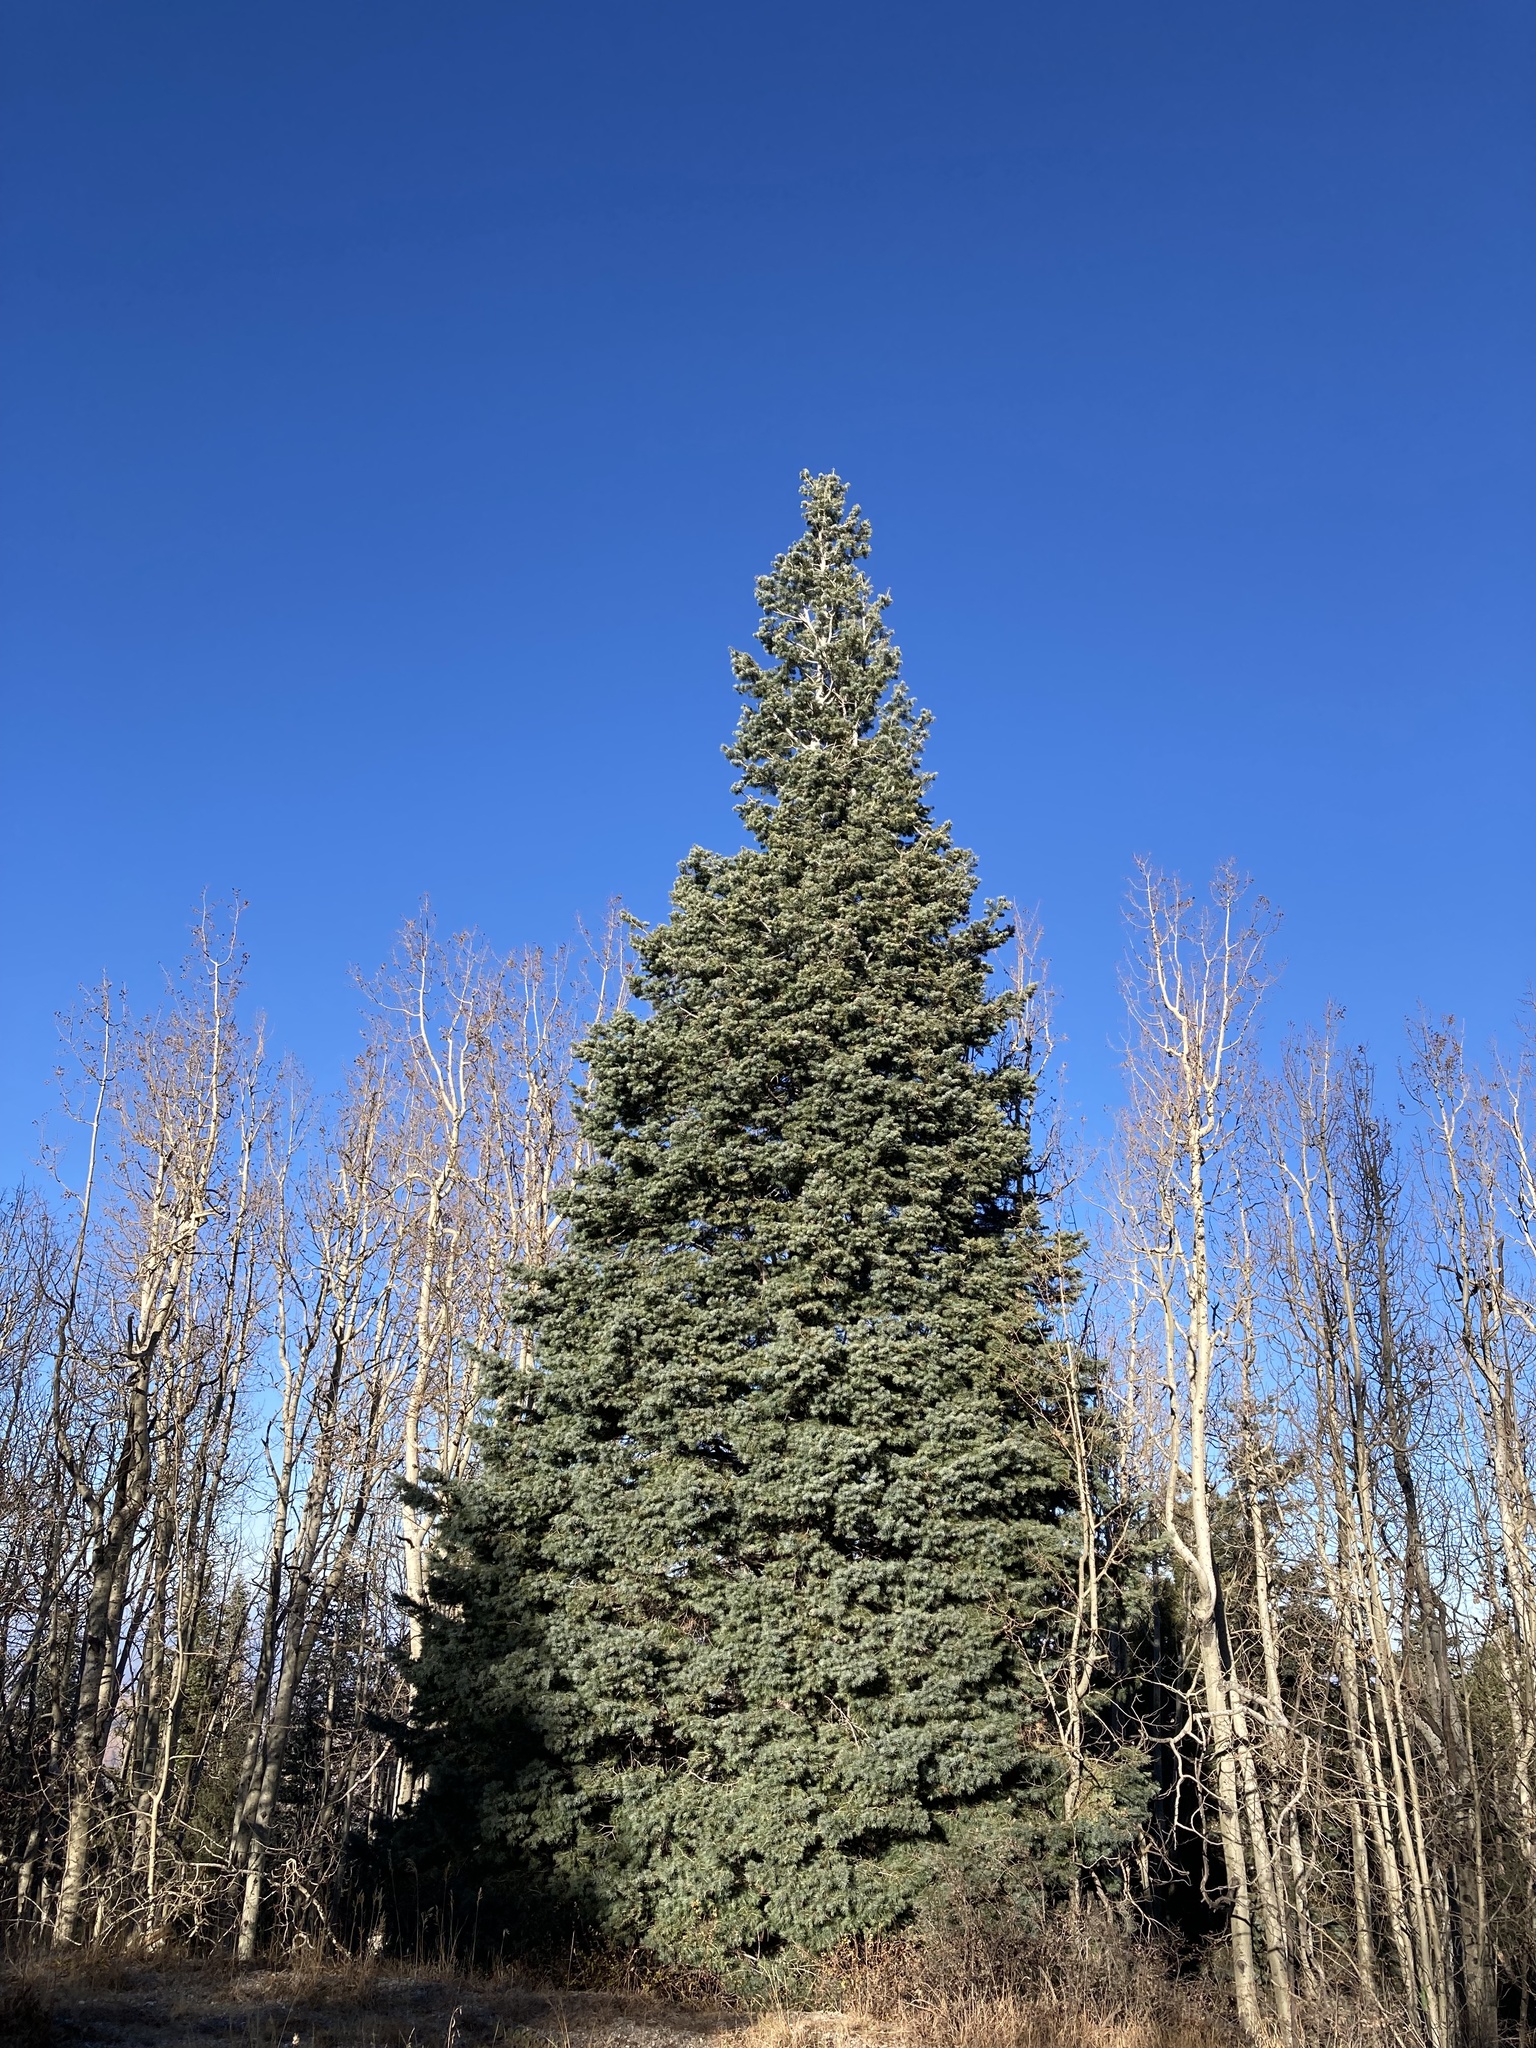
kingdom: Plantae
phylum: Tracheophyta
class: Pinopsida
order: Pinales
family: Pinaceae
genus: Abies
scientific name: Abies concolor
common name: Colorado fir
